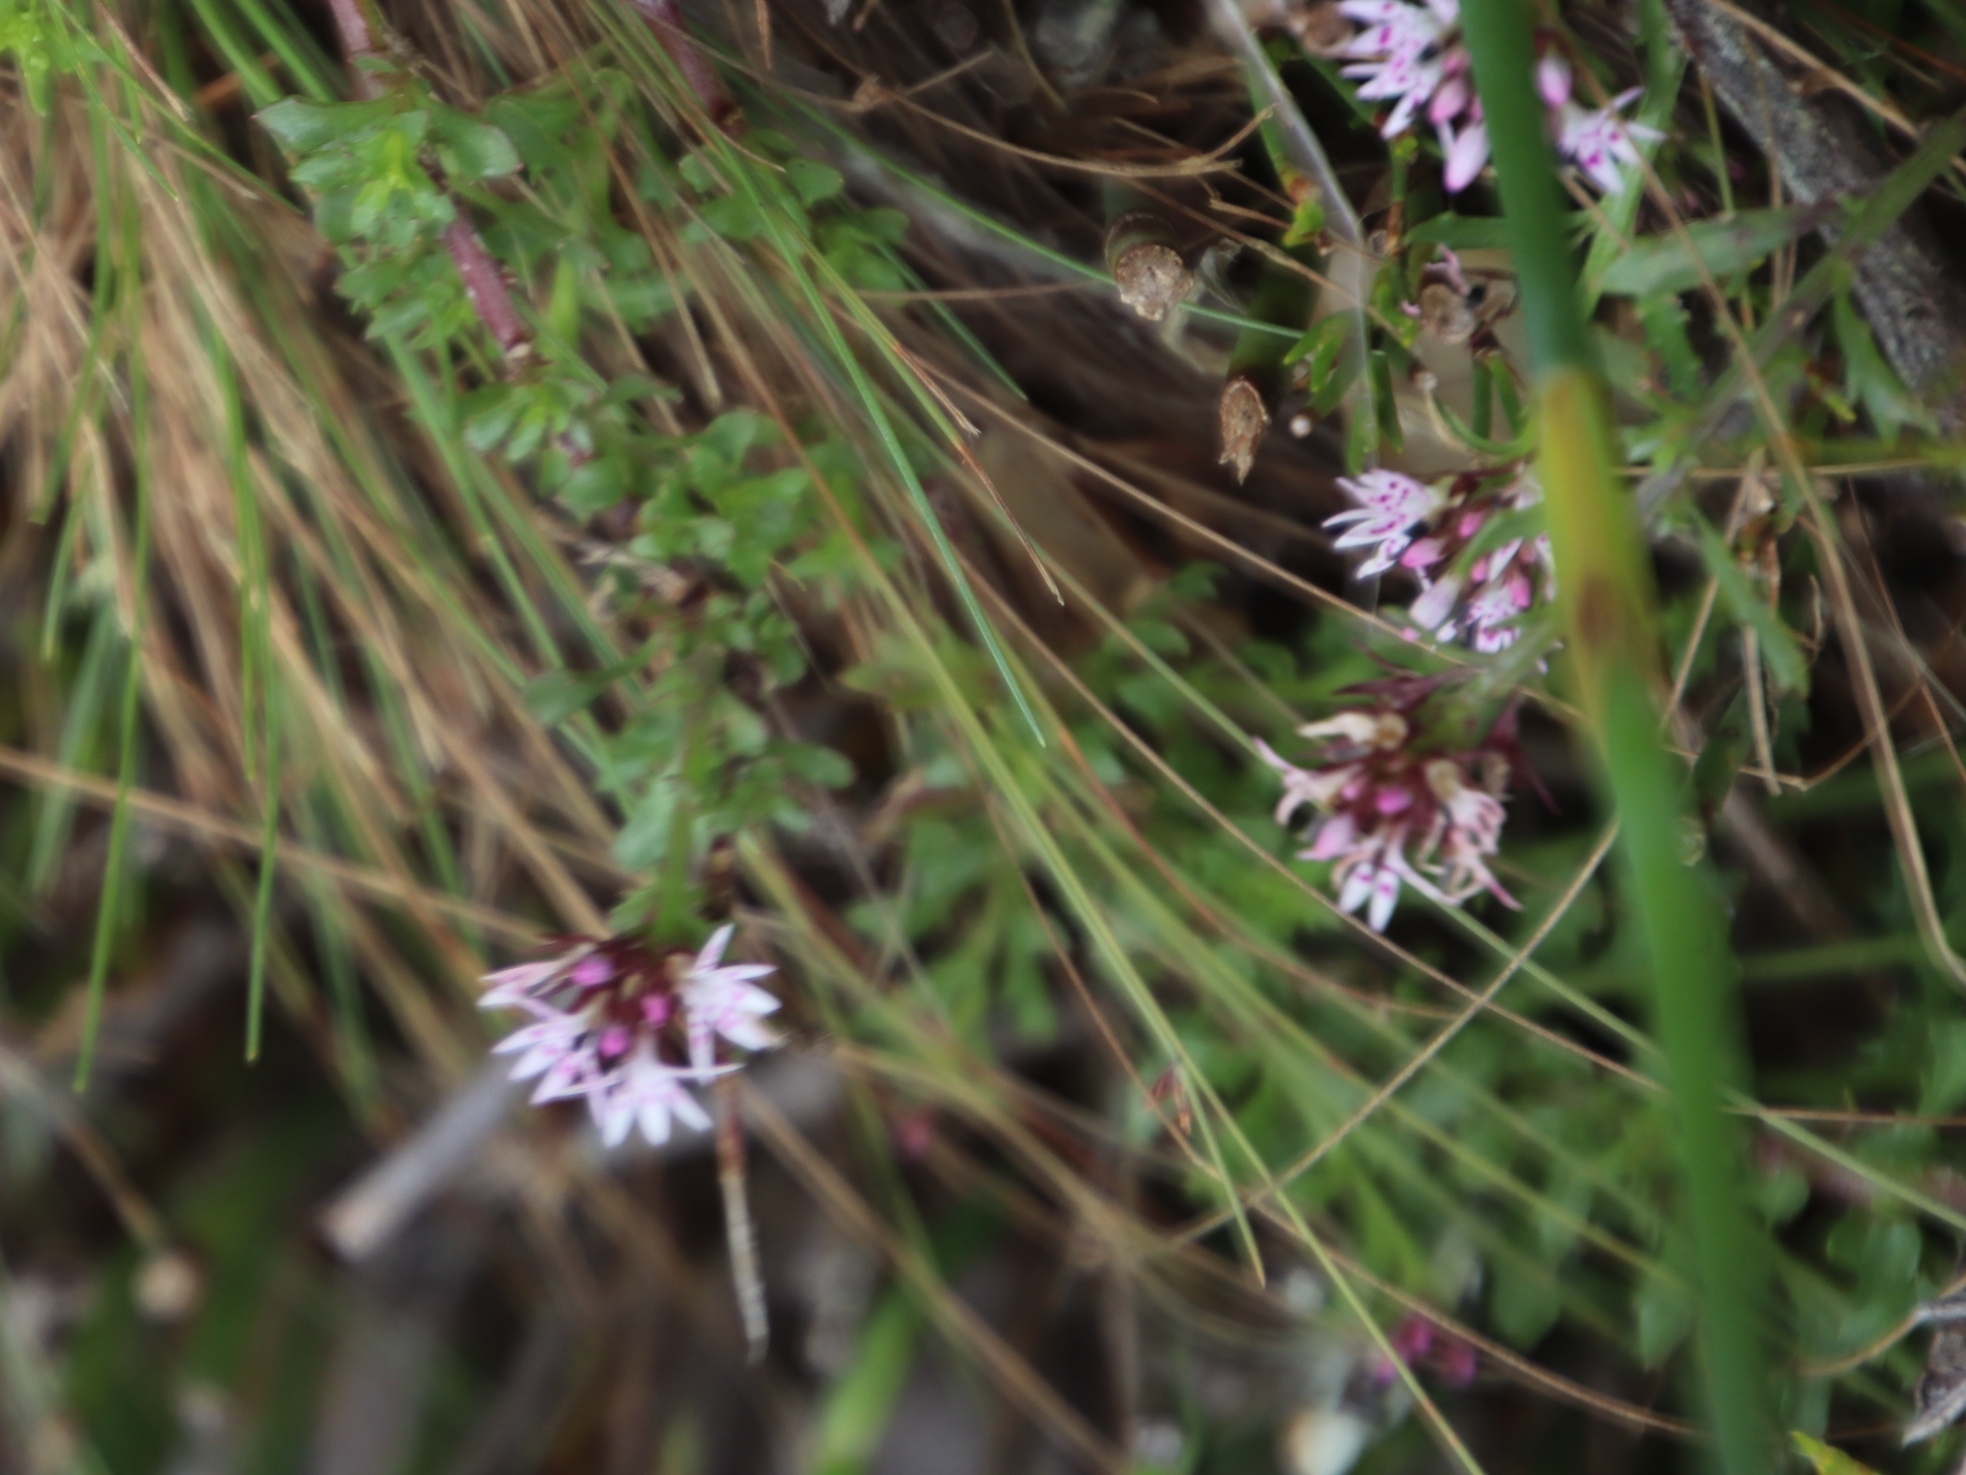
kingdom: Plantae
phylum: Tracheophyta
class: Magnoliopsida
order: Asterales
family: Campanulaceae
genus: Lobelia
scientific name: Lobelia jasionoides
